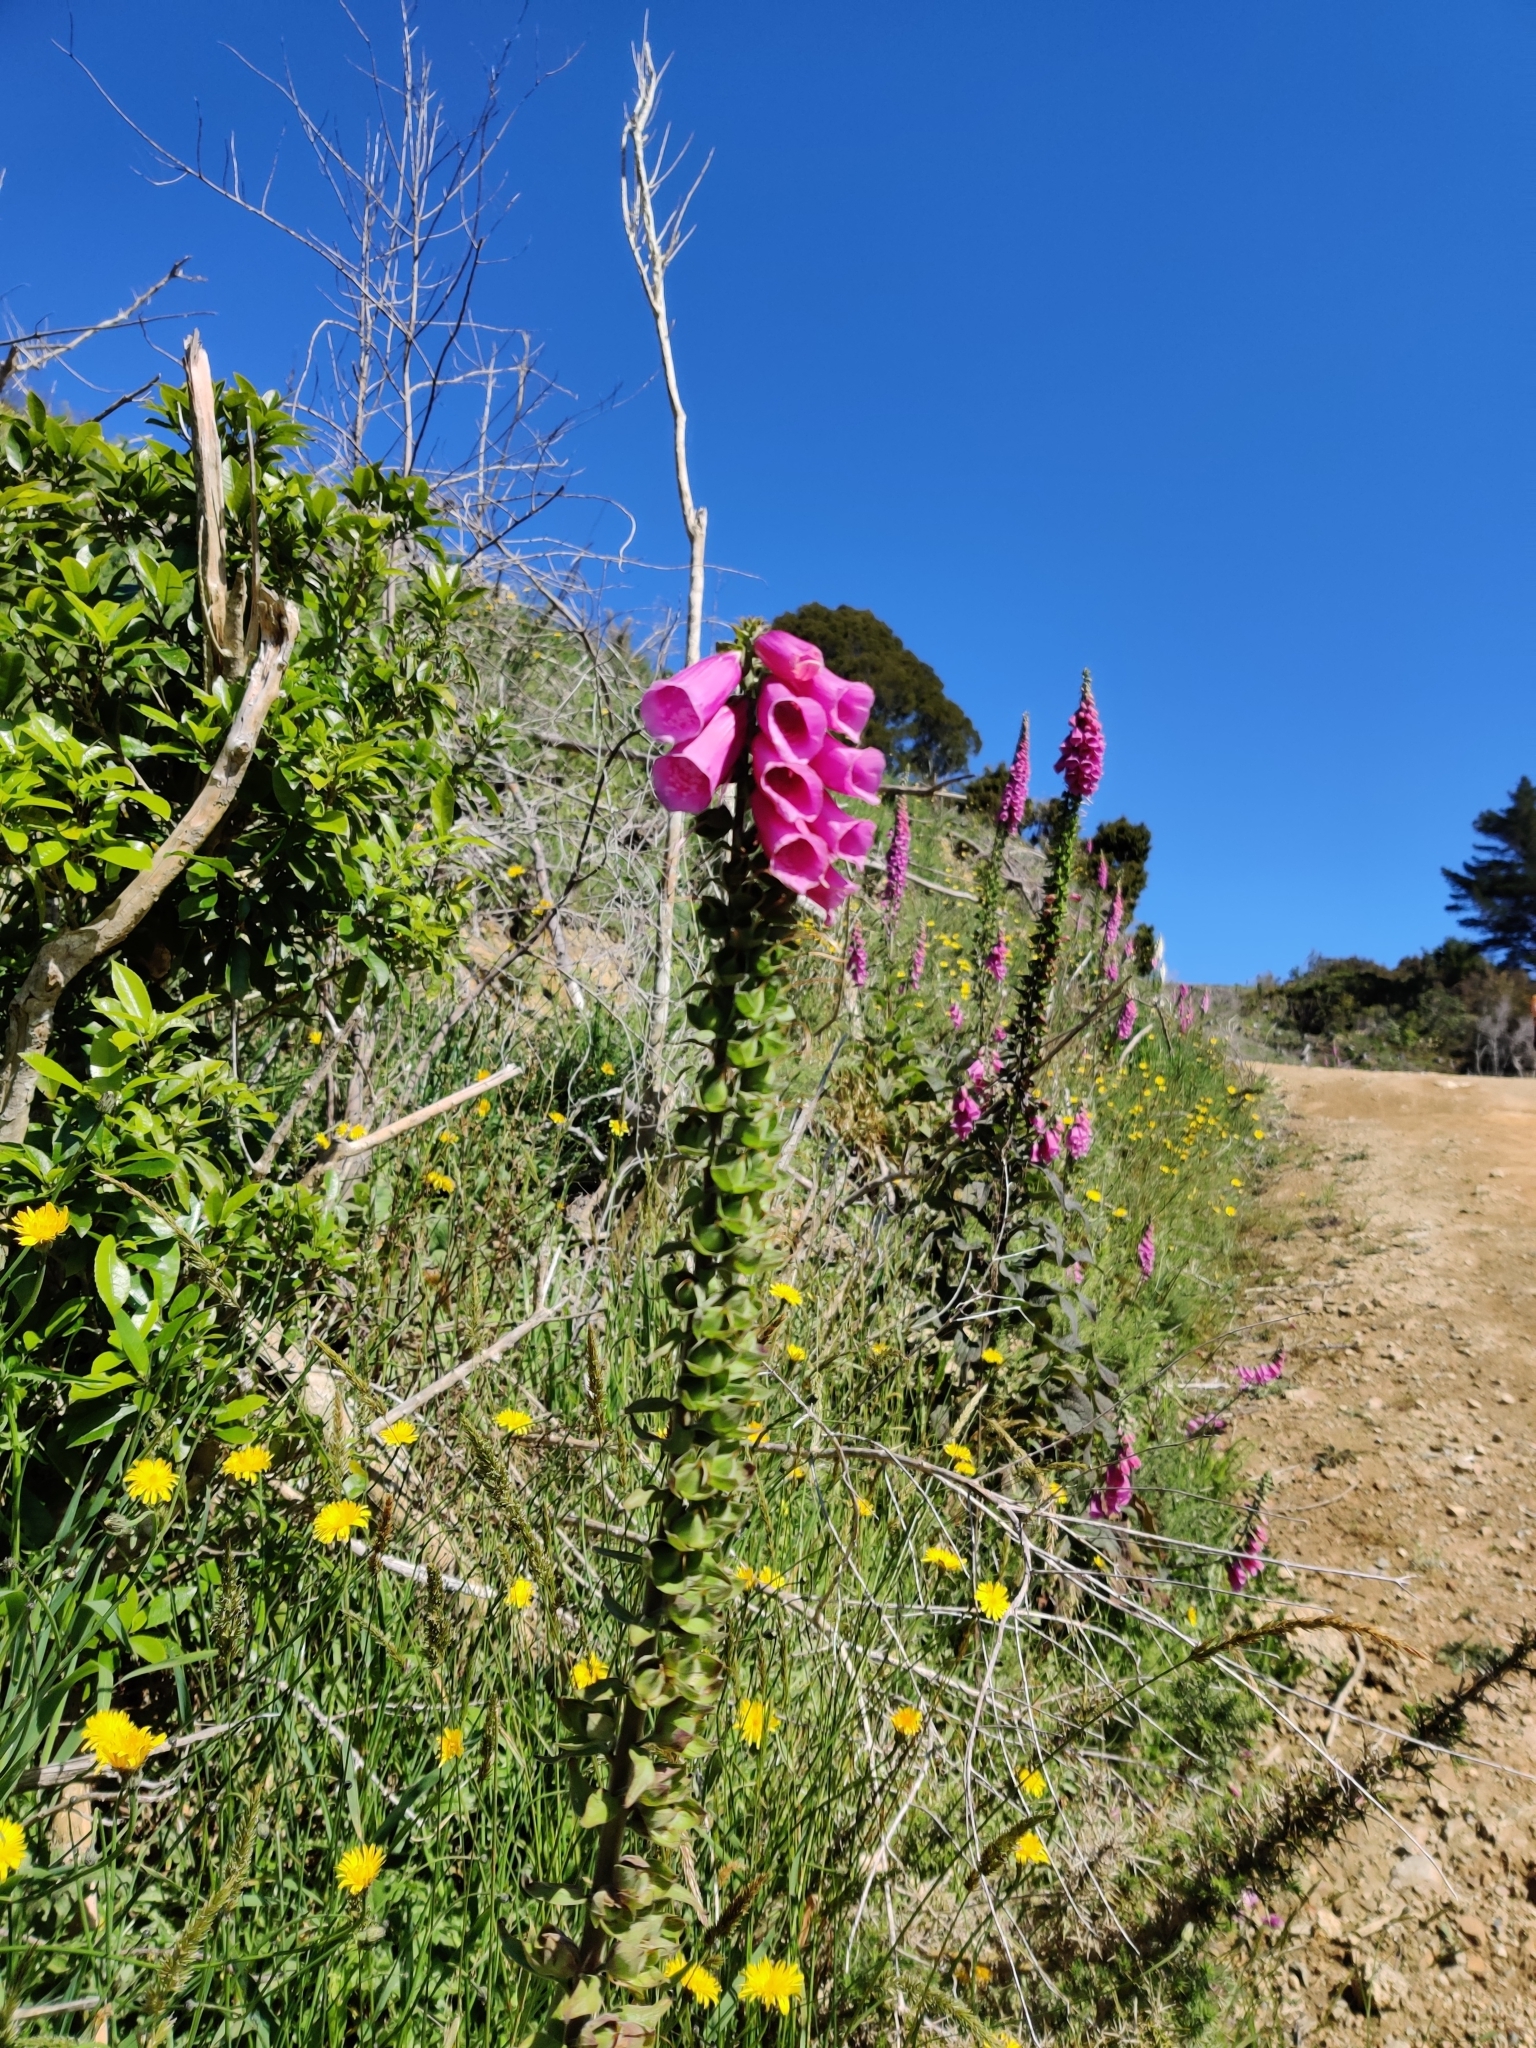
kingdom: Plantae
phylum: Tracheophyta
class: Magnoliopsida
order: Lamiales
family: Plantaginaceae
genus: Digitalis
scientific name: Digitalis purpurea
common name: Foxglove
